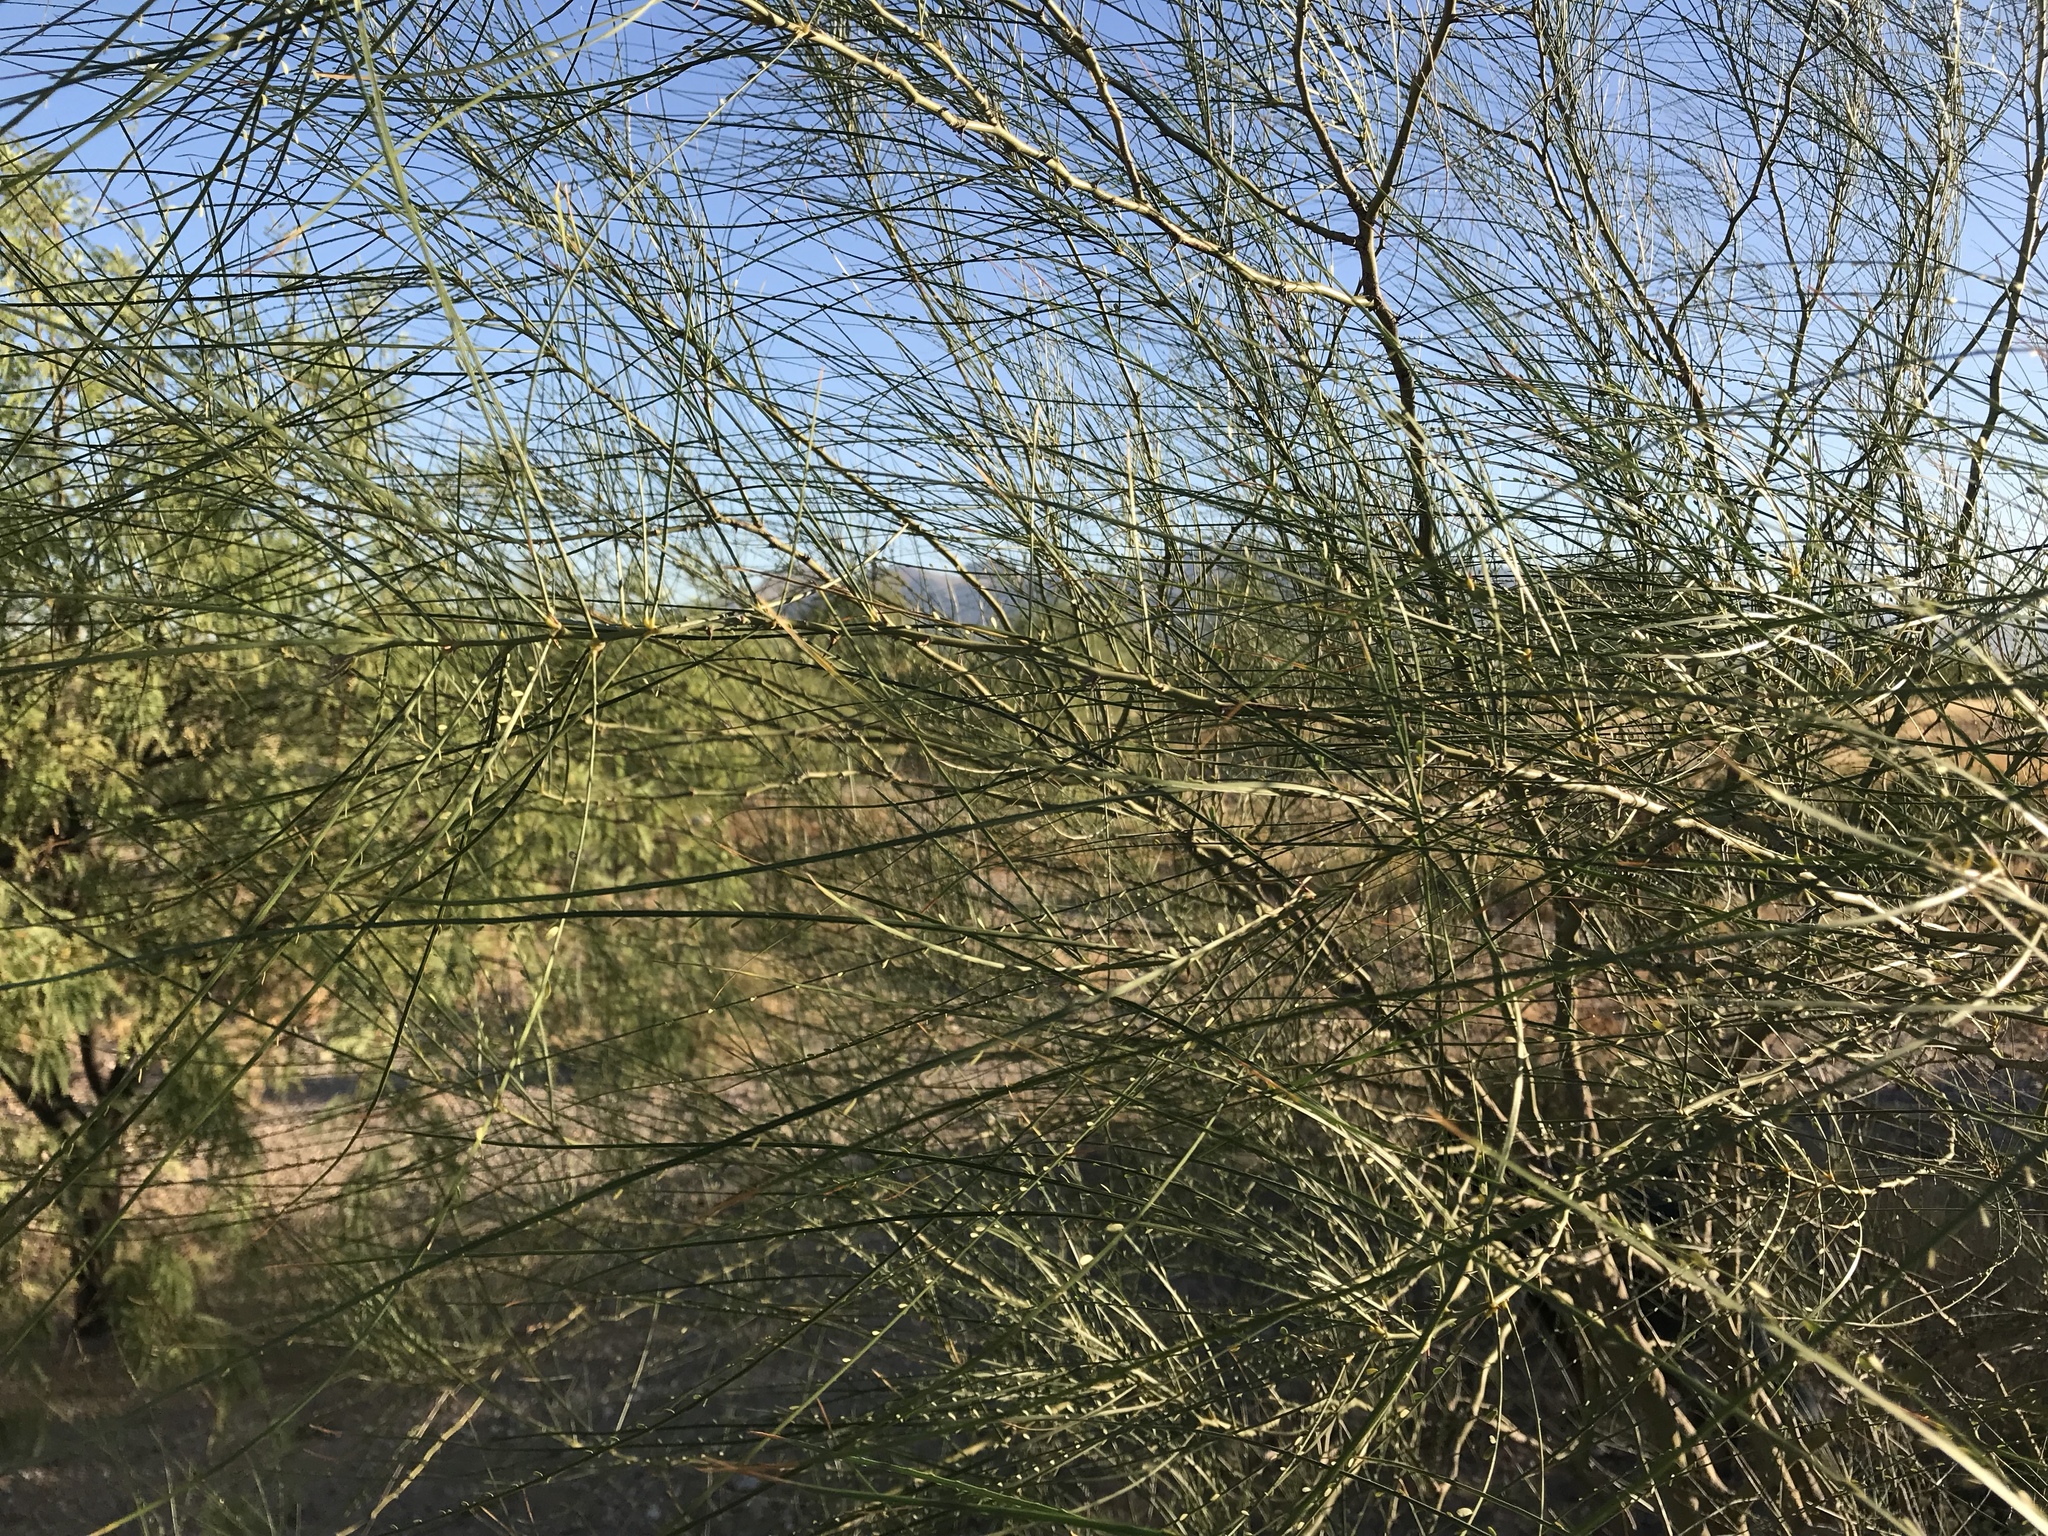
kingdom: Plantae
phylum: Tracheophyta
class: Magnoliopsida
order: Fabales
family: Fabaceae
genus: Parkinsonia
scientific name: Parkinsonia aculeata
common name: Jerusalem thorn
